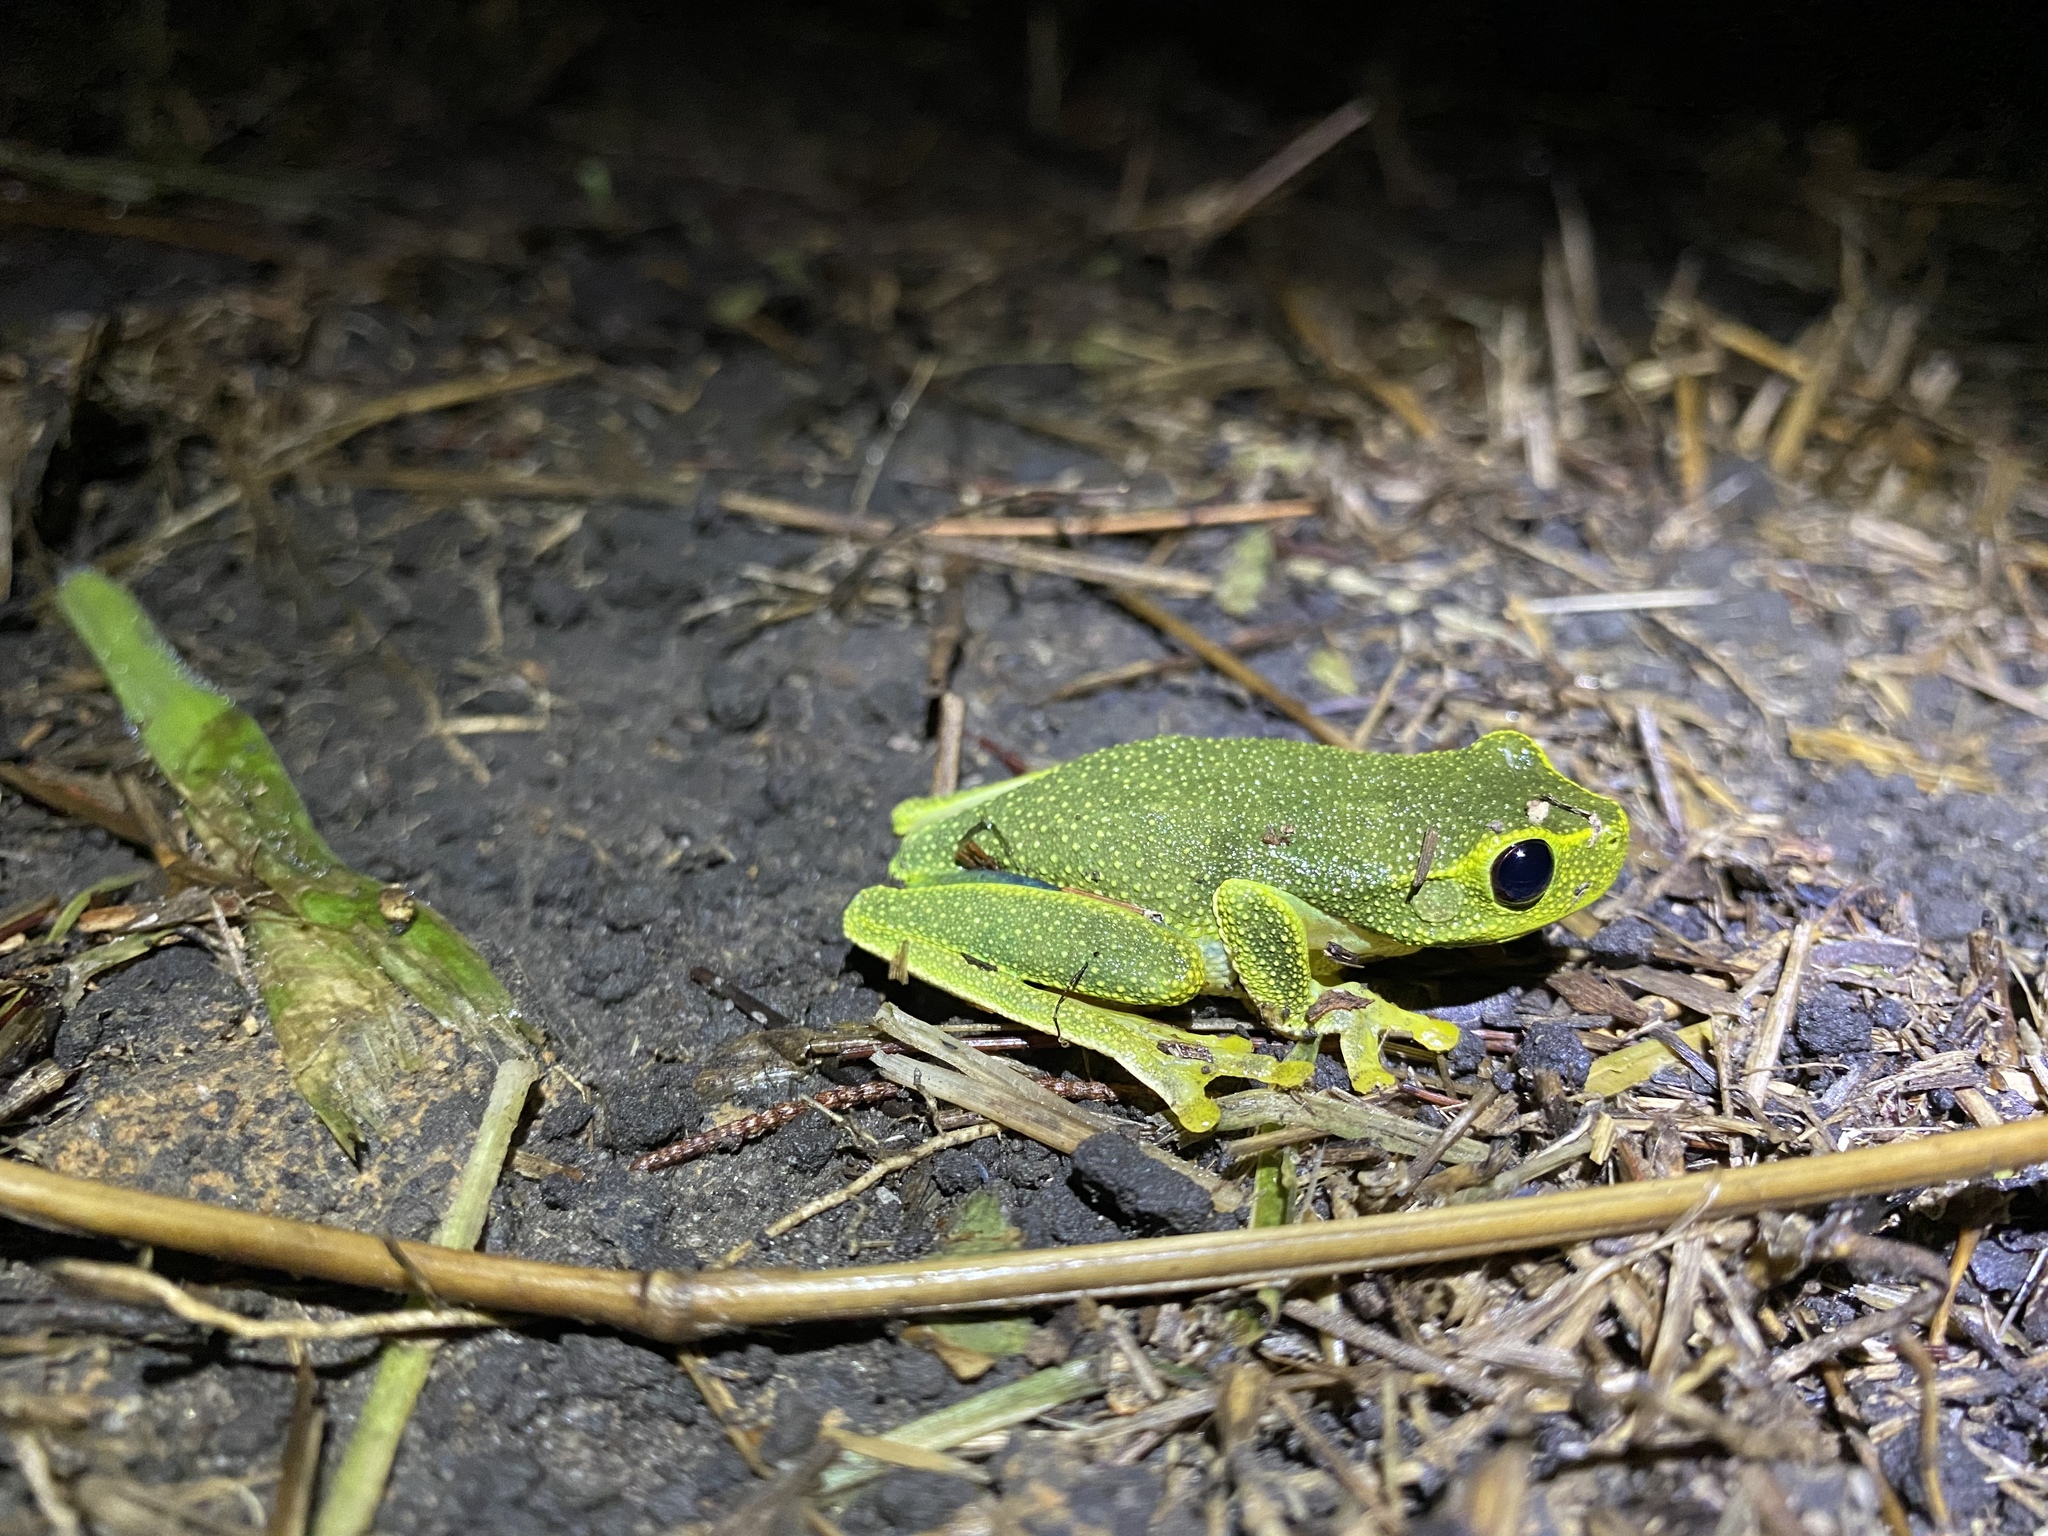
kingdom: Animalia
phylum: Chordata
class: Amphibia
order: Anura
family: Pelodryadidae
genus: Ranoidea
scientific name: Ranoidea gracilenta
